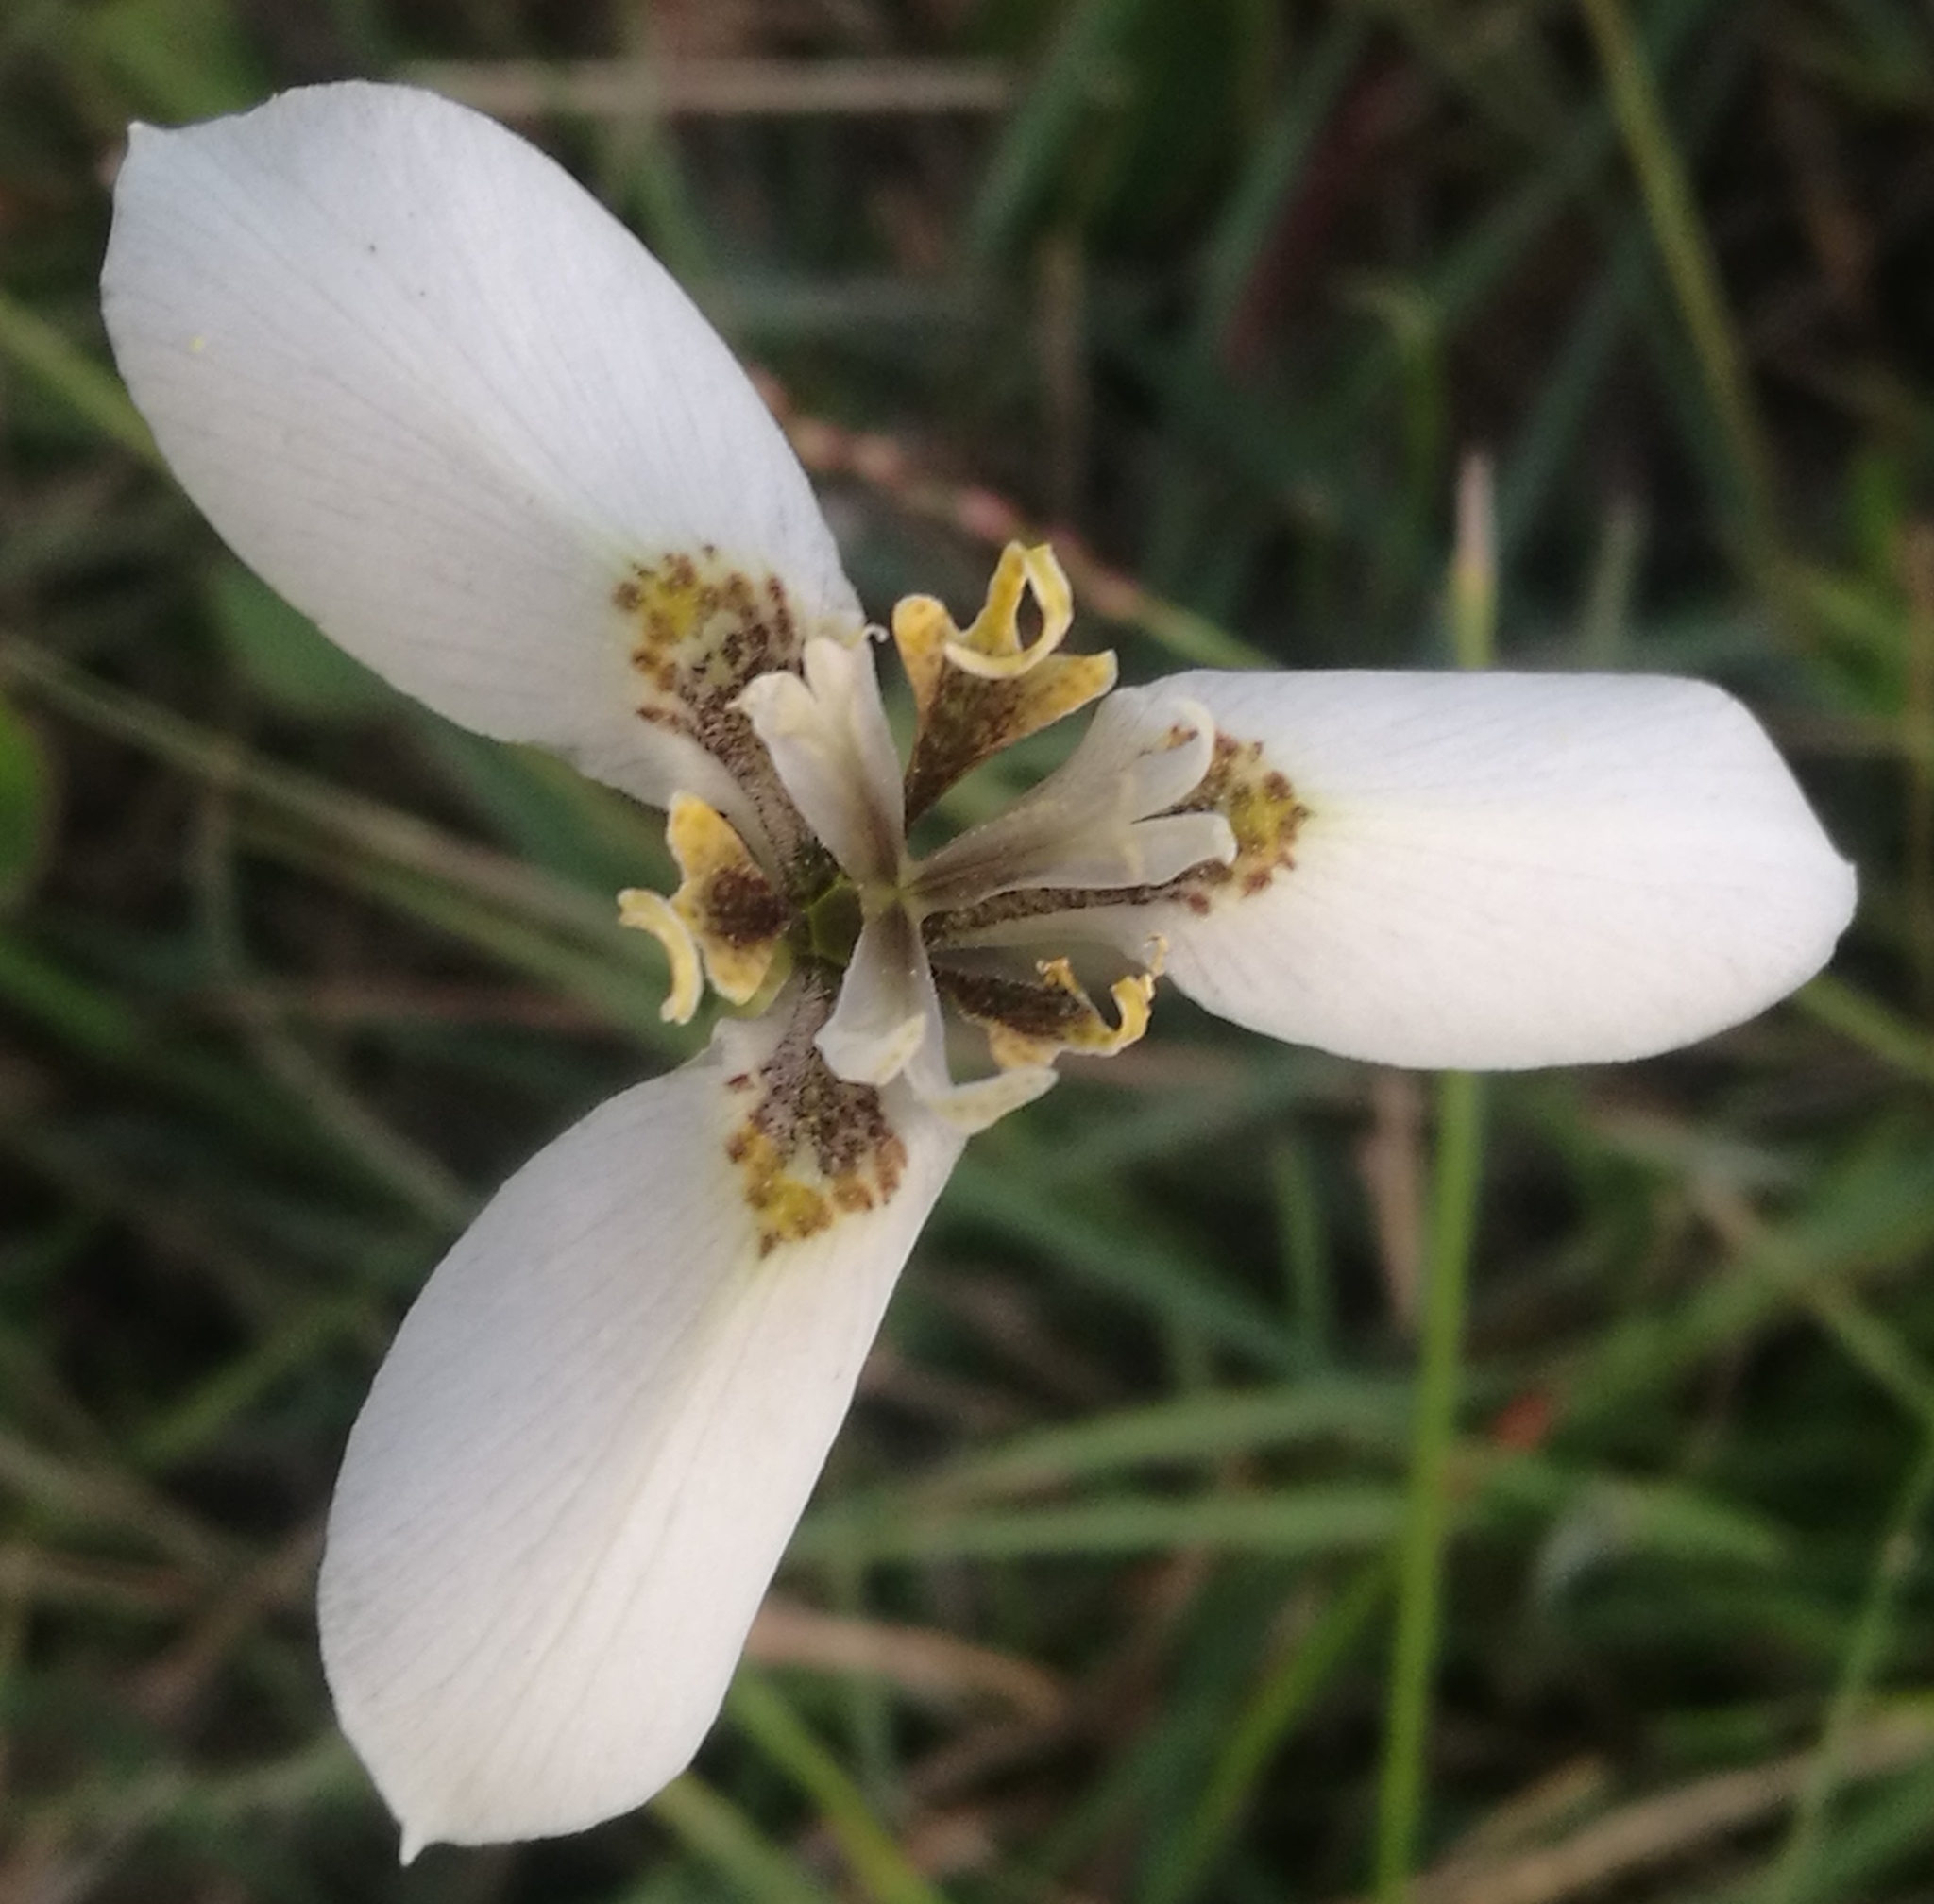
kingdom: Plantae
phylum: Tracheophyta
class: Liliopsida
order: Asparagales
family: Iridaceae
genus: Moraea
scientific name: Moraea tricuspidata
